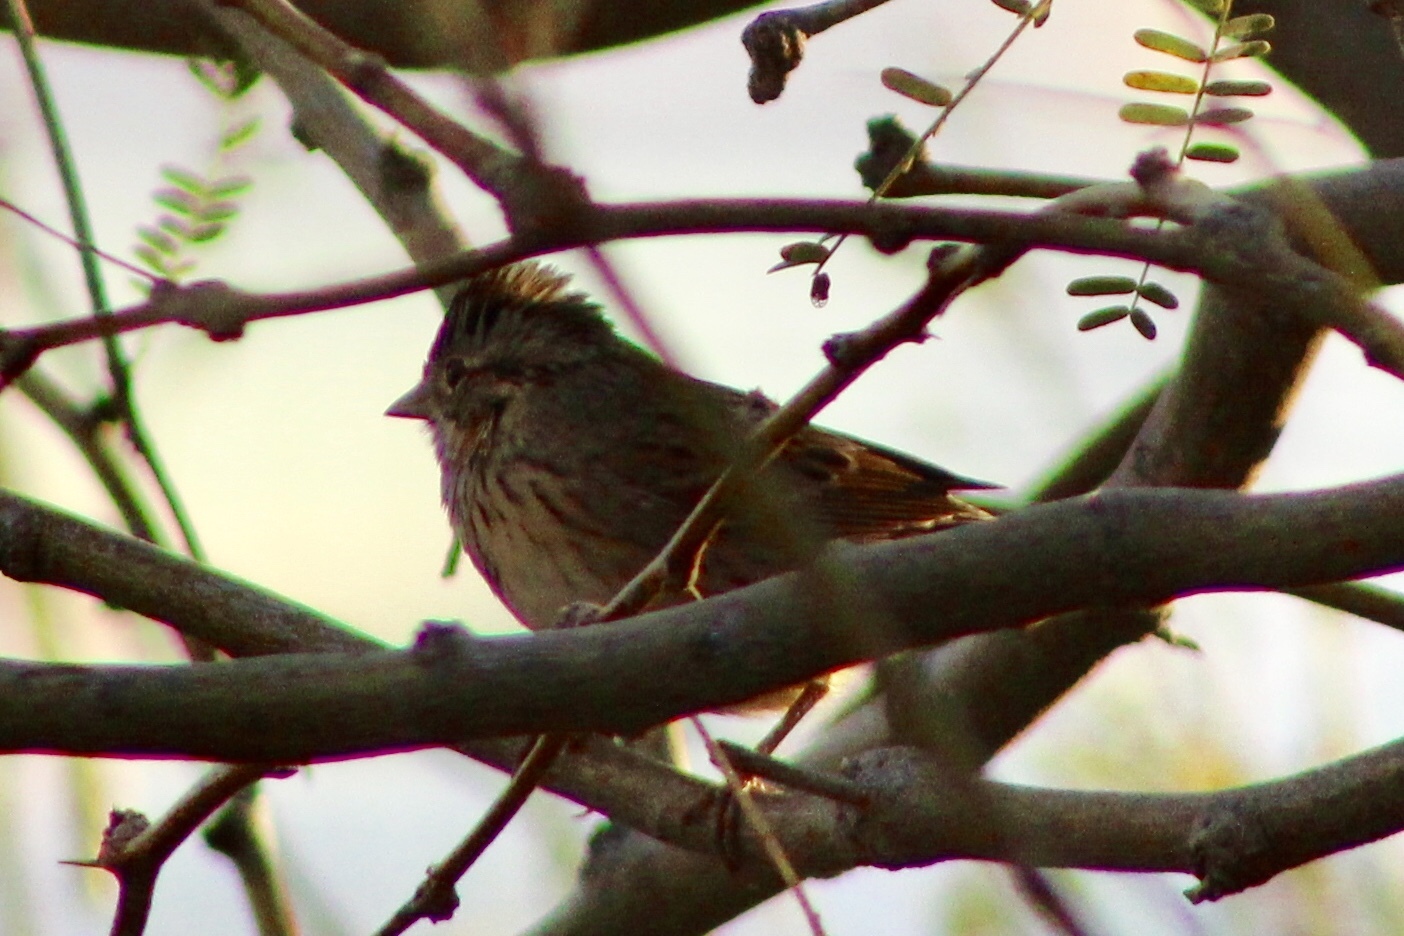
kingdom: Animalia
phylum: Chordata
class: Aves
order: Passeriformes
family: Passerellidae
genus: Melospiza
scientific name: Melospiza lincolnii
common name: Lincoln's sparrow
